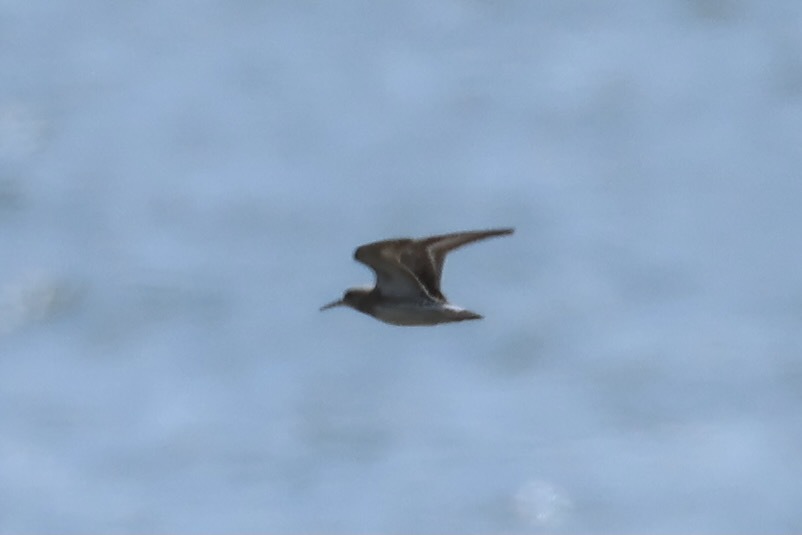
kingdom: Animalia
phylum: Chordata
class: Aves
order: Charadriiformes
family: Scolopacidae
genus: Calidris
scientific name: Calidris melanotos
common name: Pectoral sandpiper
